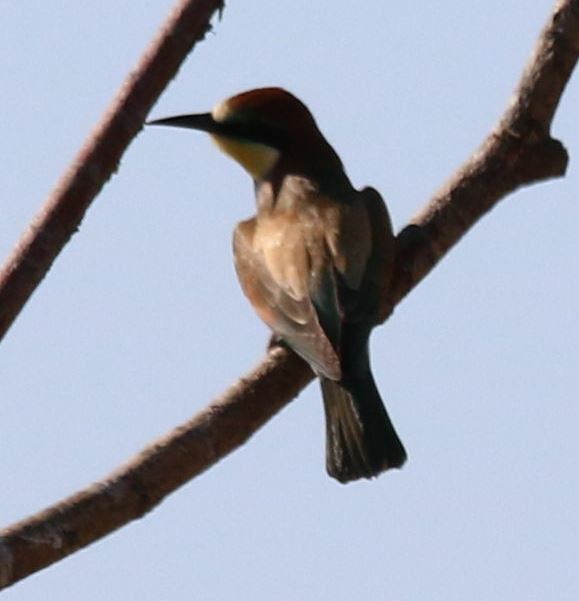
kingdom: Animalia
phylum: Chordata
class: Aves
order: Coraciiformes
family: Meropidae
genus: Merops
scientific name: Merops apiaster
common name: European bee-eater
